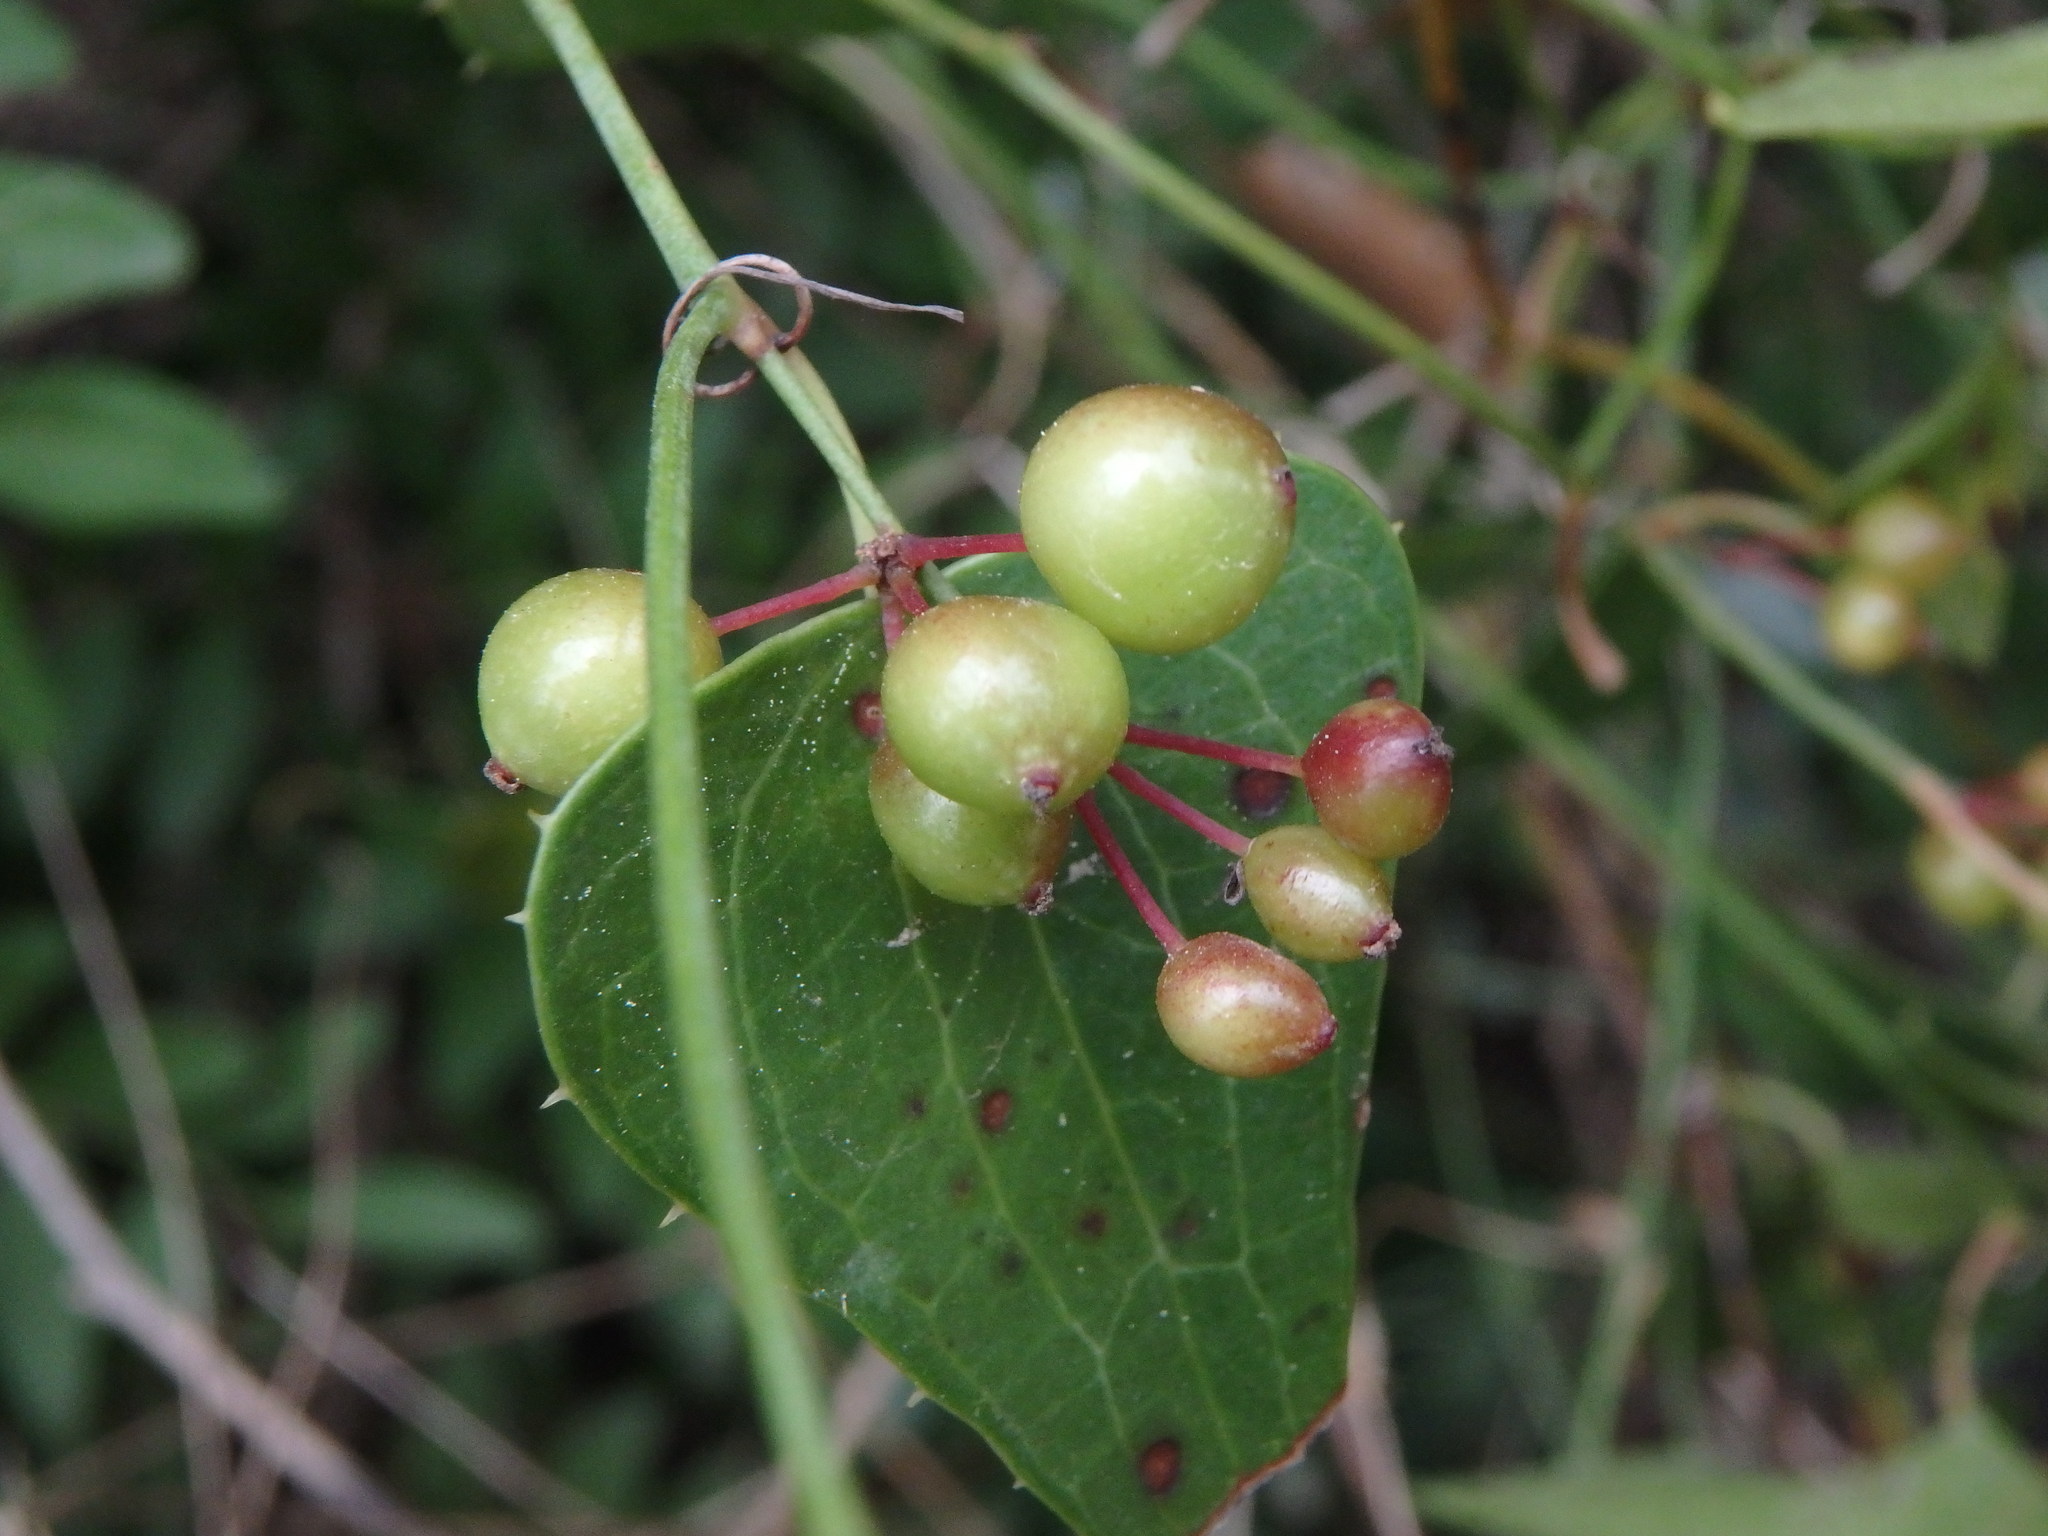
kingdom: Plantae
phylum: Tracheophyta
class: Liliopsida
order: Liliales
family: Smilacaceae
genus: Smilax
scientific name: Smilax aspera
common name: Common smilax
